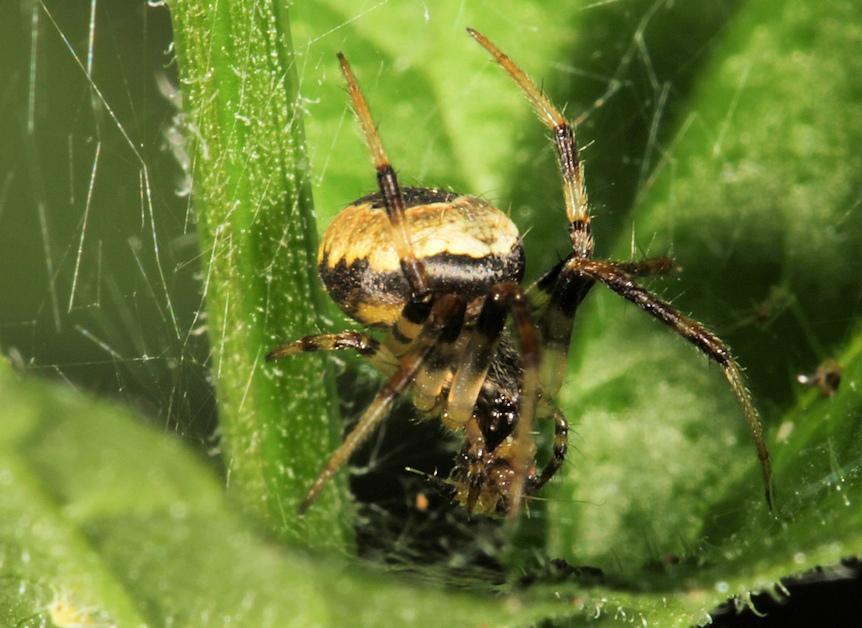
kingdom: Animalia
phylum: Arthropoda
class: Arachnida
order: Araneae
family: Araneidae
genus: Neoscona
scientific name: Neoscona blondeli
